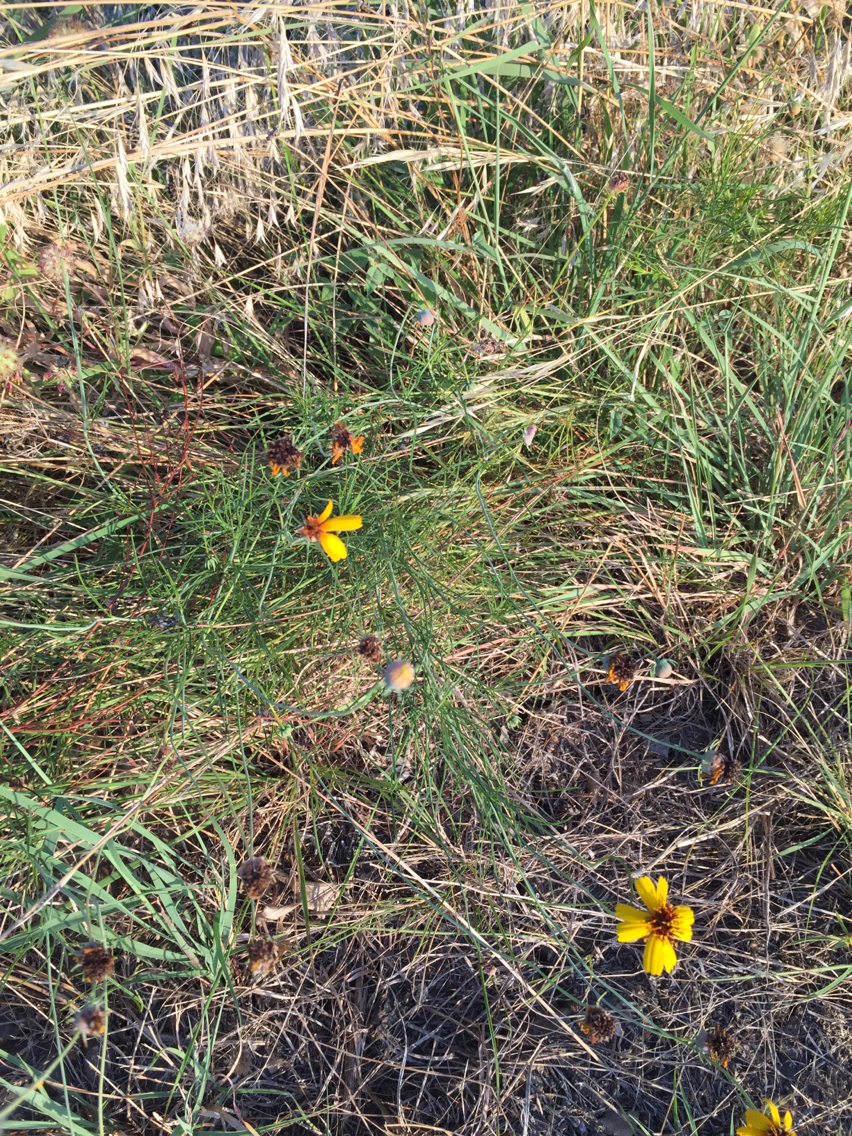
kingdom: Plantae
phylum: Tracheophyta
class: Magnoliopsida
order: Asterales
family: Asteraceae
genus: Thelesperma
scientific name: Thelesperma filifolium
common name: Stiff greenthread
